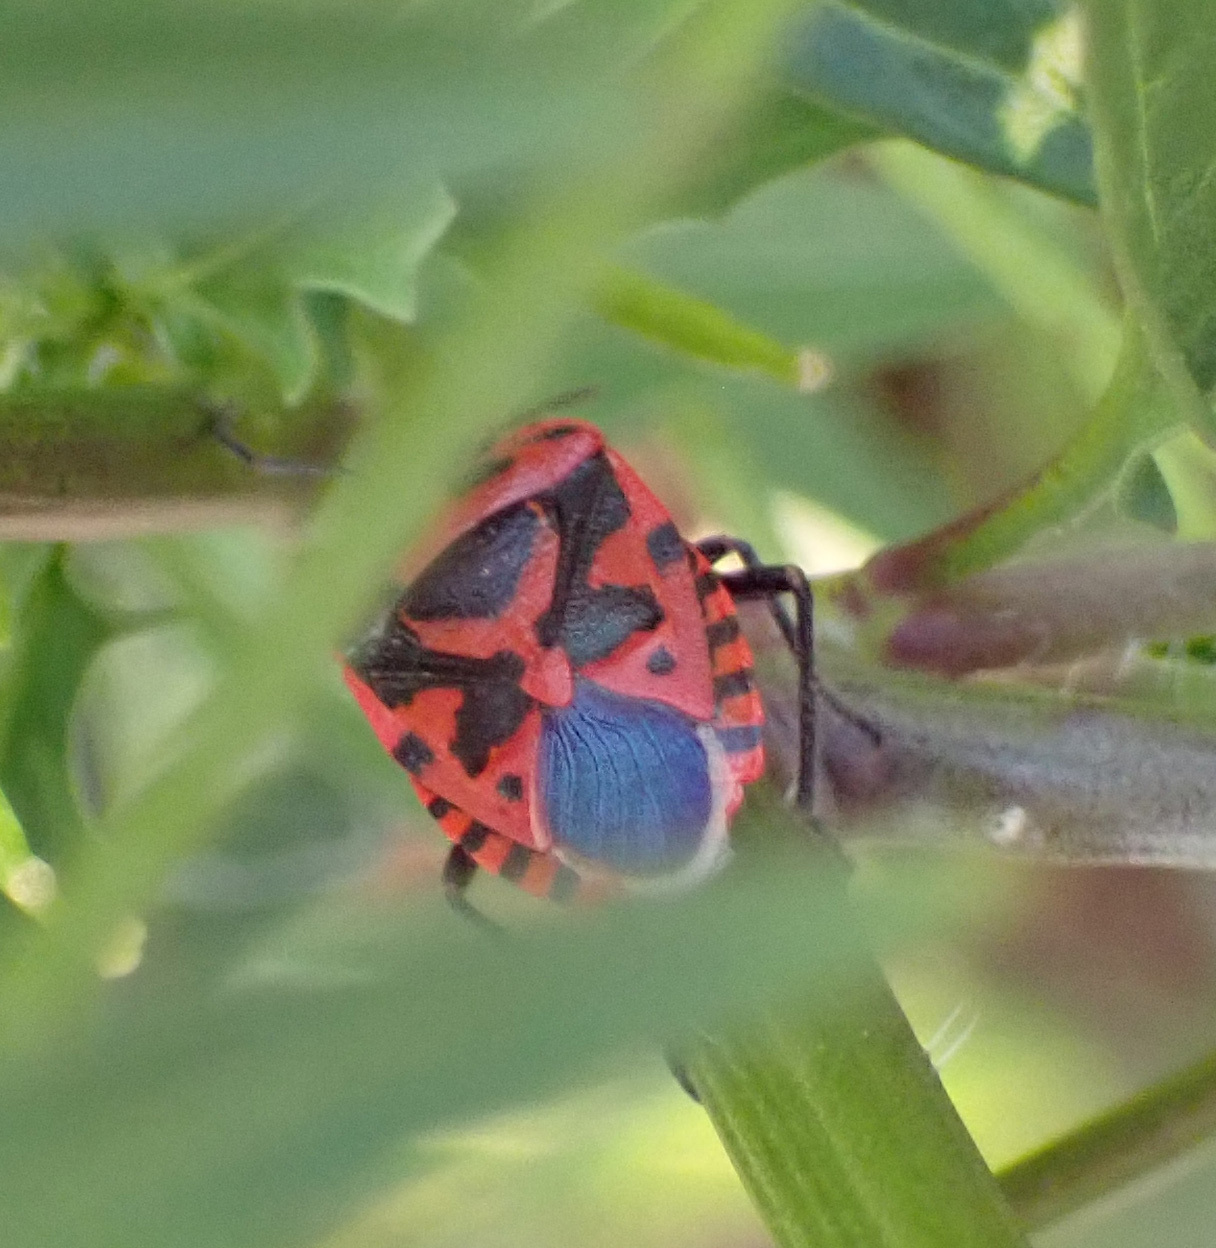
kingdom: Animalia
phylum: Arthropoda
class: Insecta
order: Hemiptera
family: Pentatomidae
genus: Eurydema
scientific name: Eurydema ventralis
